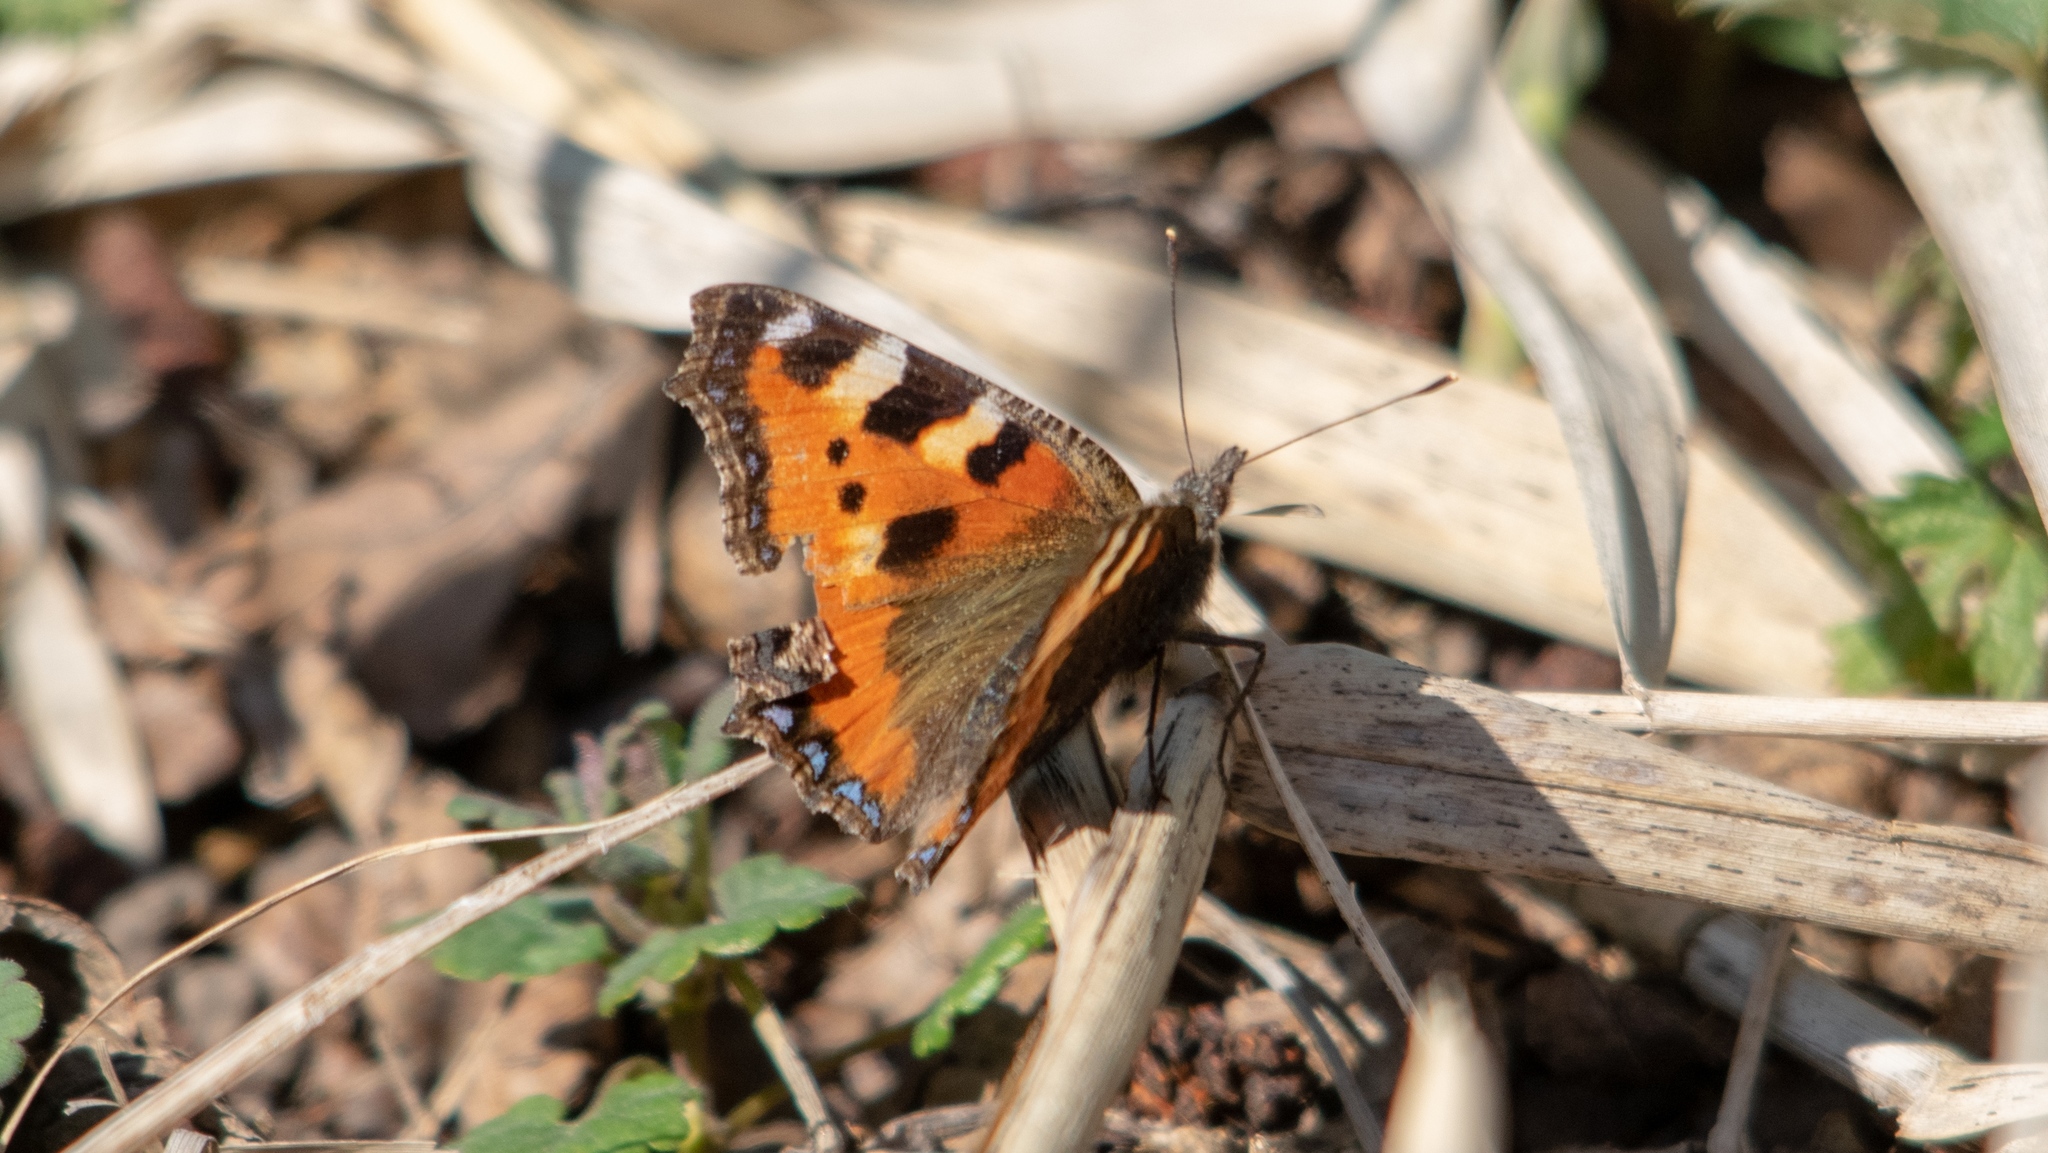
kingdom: Animalia
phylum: Arthropoda
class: Insecta
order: Lepidoptera
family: Nymphalidae
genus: Aglais
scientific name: Aglais urticae
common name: Small tortoiseshell
